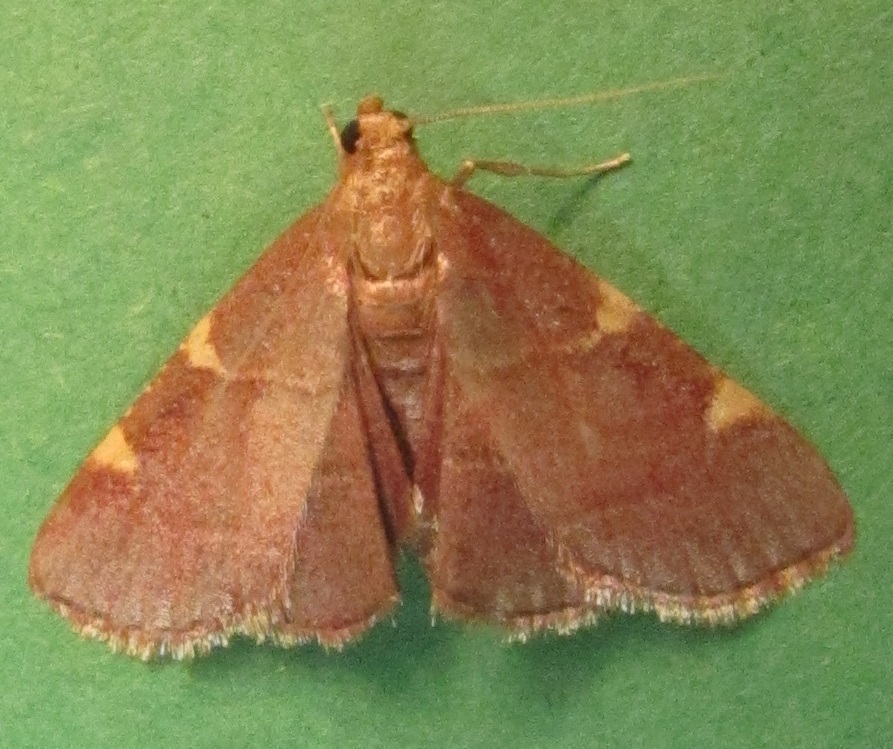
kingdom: Animalia
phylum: Arthropoda
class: Insecta
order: Lepidoptera
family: Pyralidae
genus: Hypsopygia
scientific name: Hypsopygia olinalis
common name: Yellow-fringed dolichomia moth
